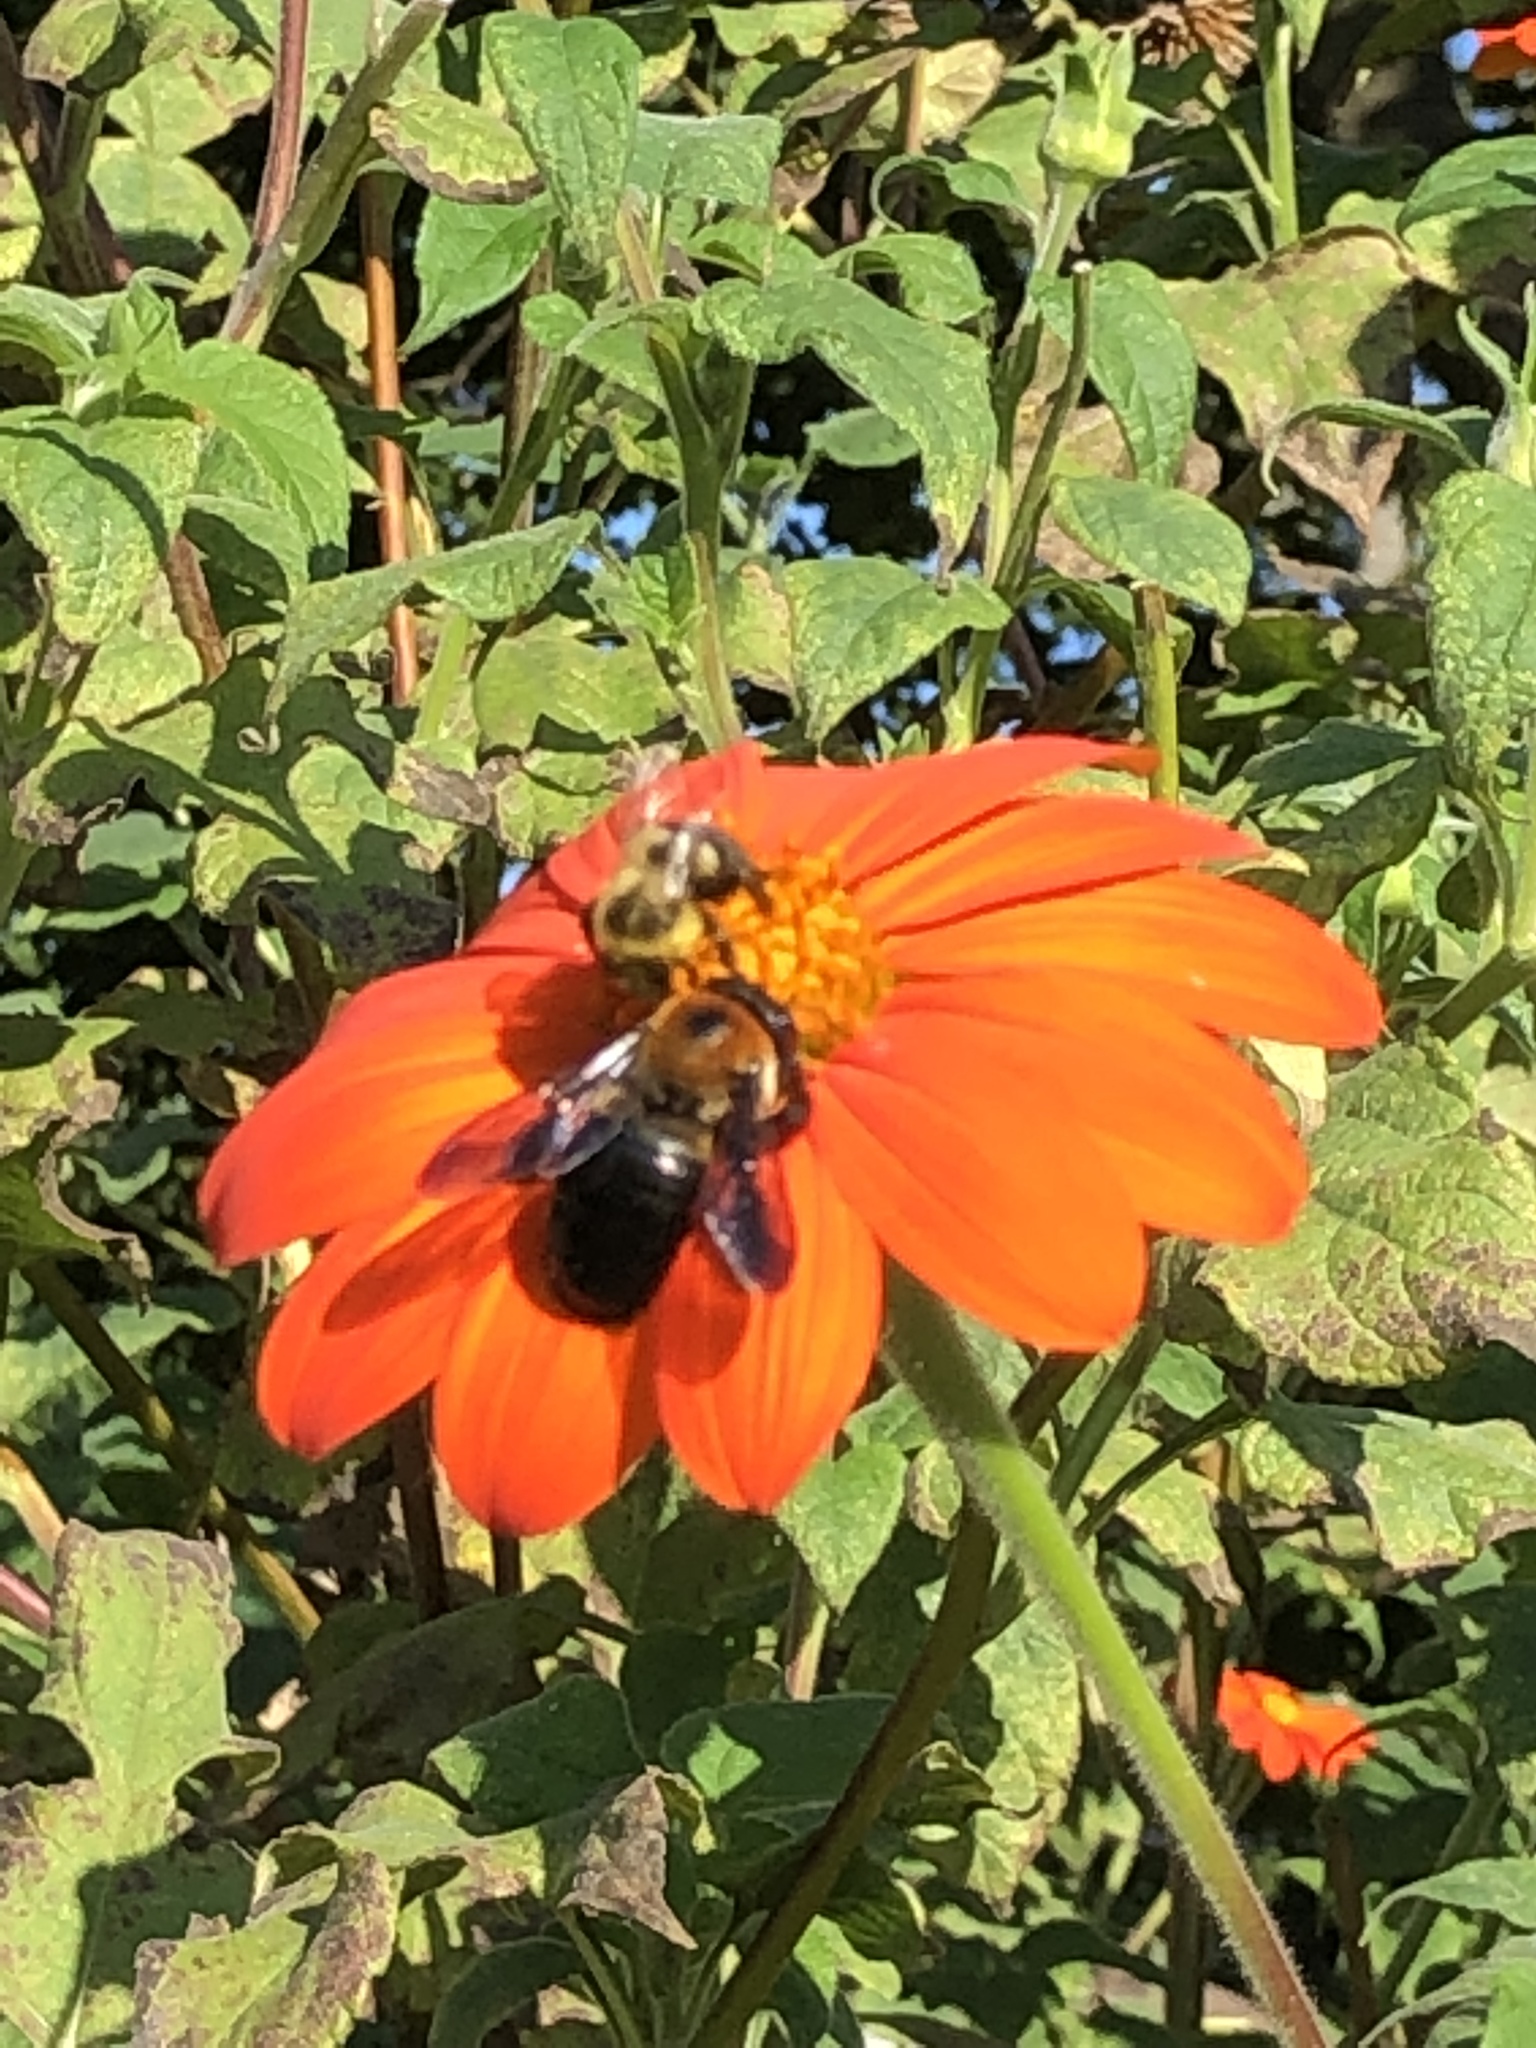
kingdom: Animalia
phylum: Arthropoda
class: Insecta
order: Hymenoptera
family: Apidae
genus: Xylocopa
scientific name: Xylocopa virginica
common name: Carpenter bee
